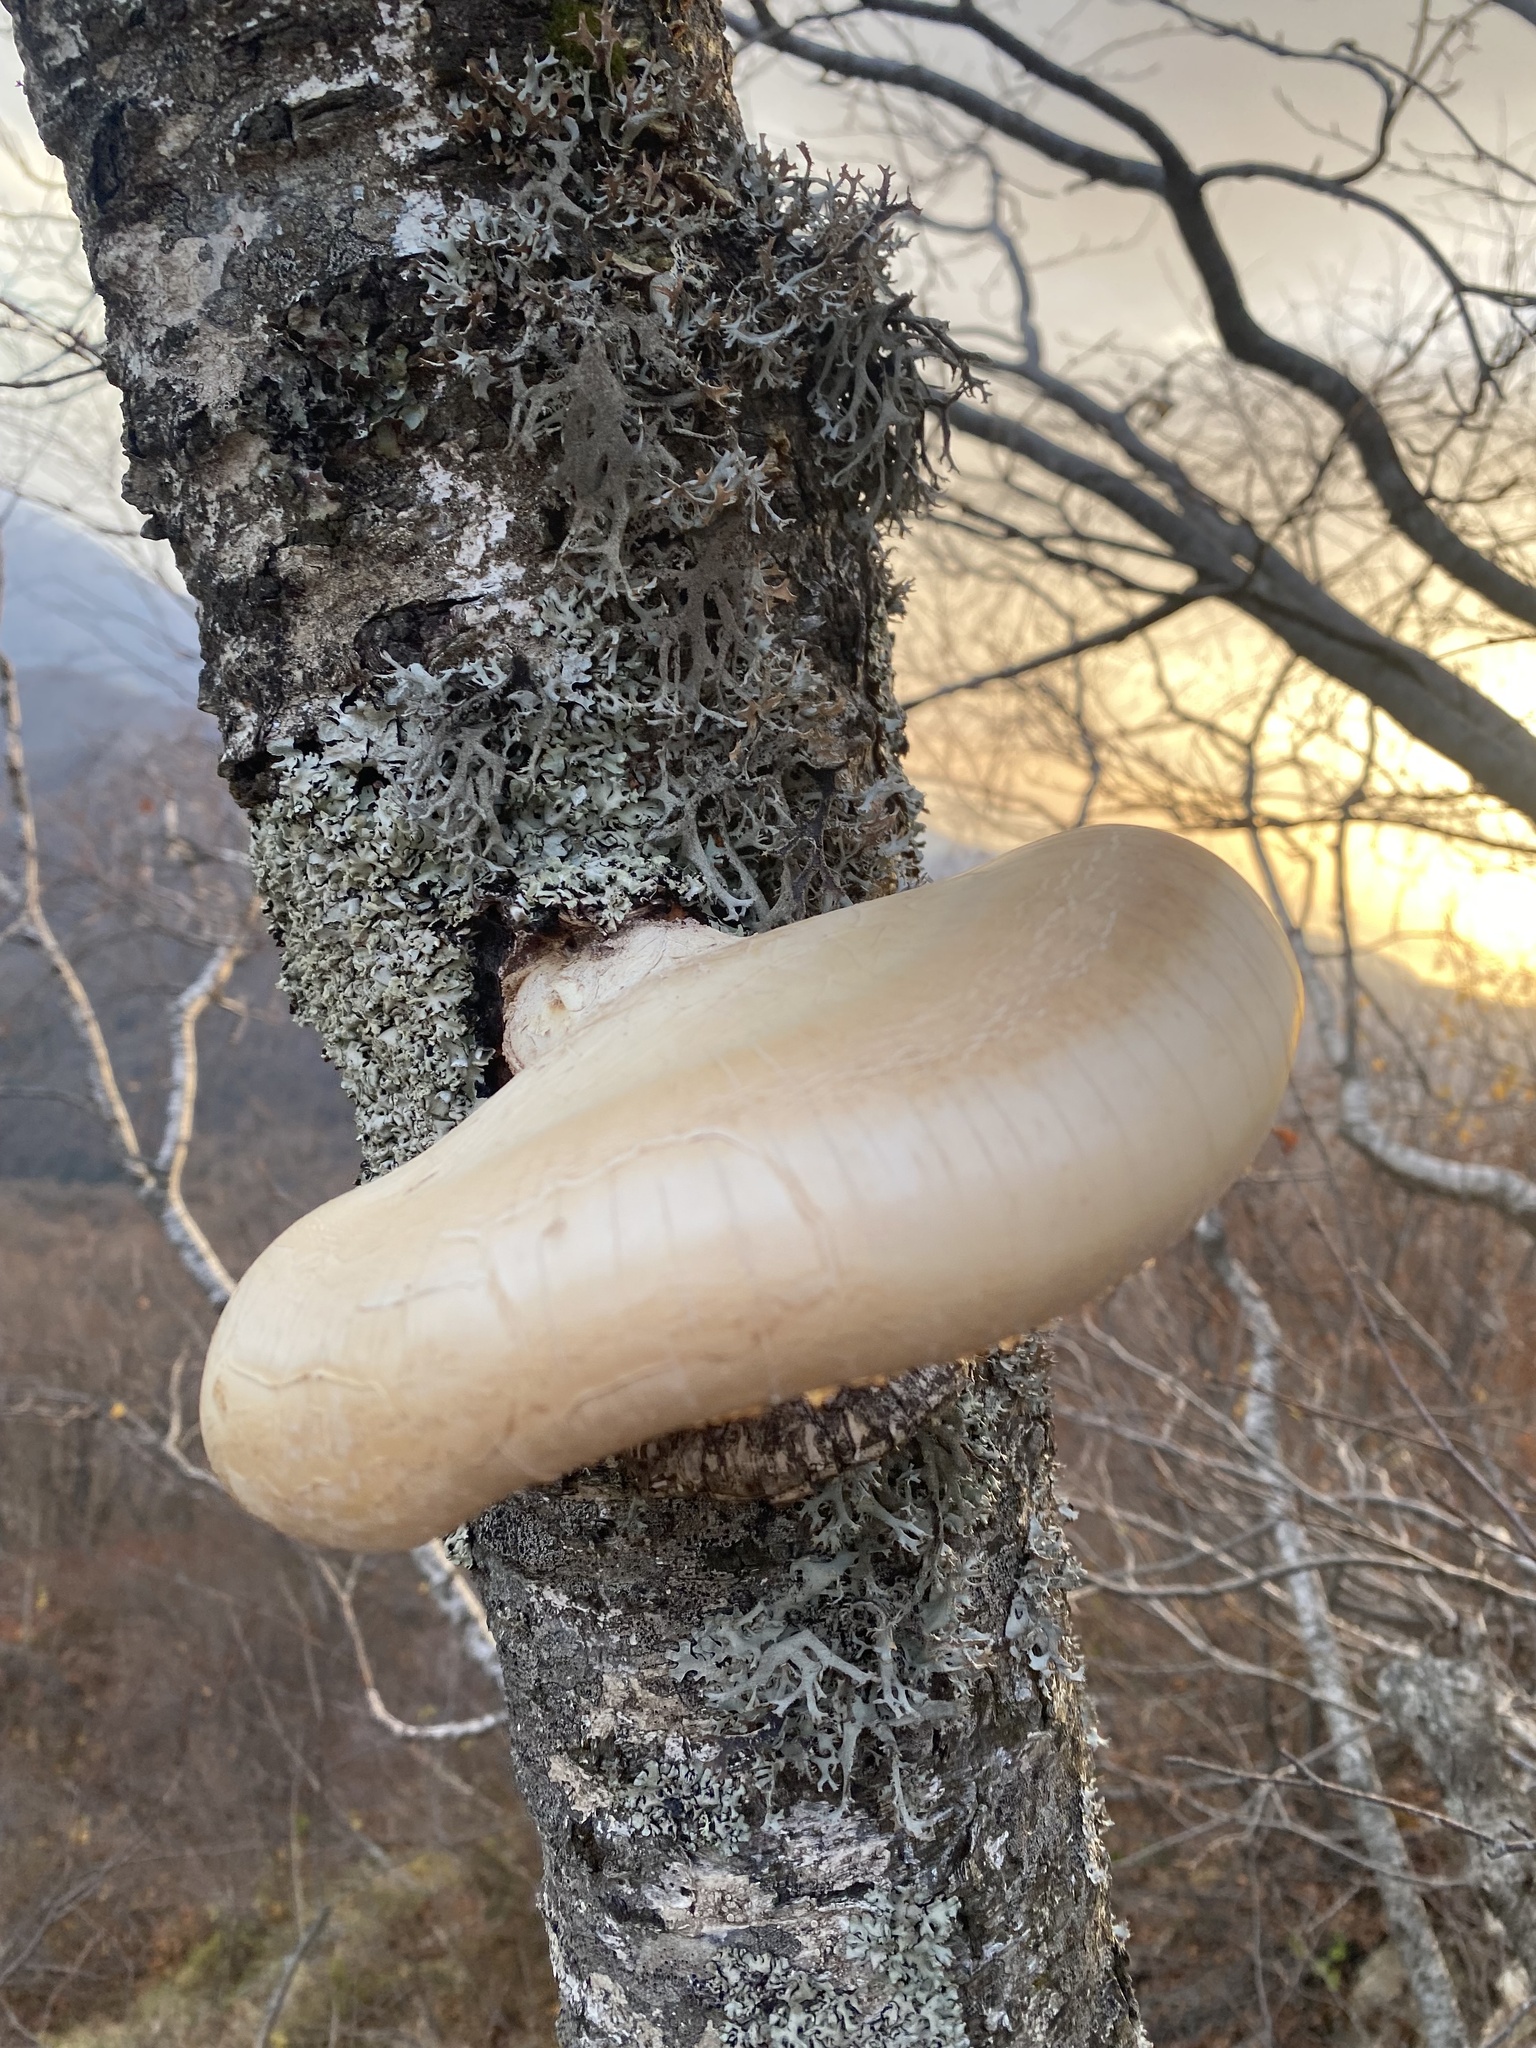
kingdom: Fungi
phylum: Basidiomycota
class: Agaricomycetes
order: Polyporales
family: Fomitopsidaceae
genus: Fomitopsis
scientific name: Fomitopsis betulina
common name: Birch polypore
